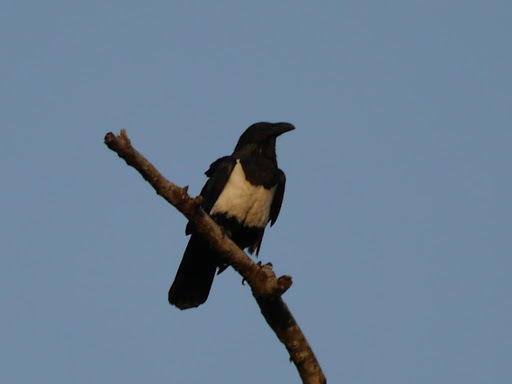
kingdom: Animalia
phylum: Chordata
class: Aves
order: Passeriformes
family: Corvidae
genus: Corvus
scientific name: Corvus albus
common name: Pied crow
